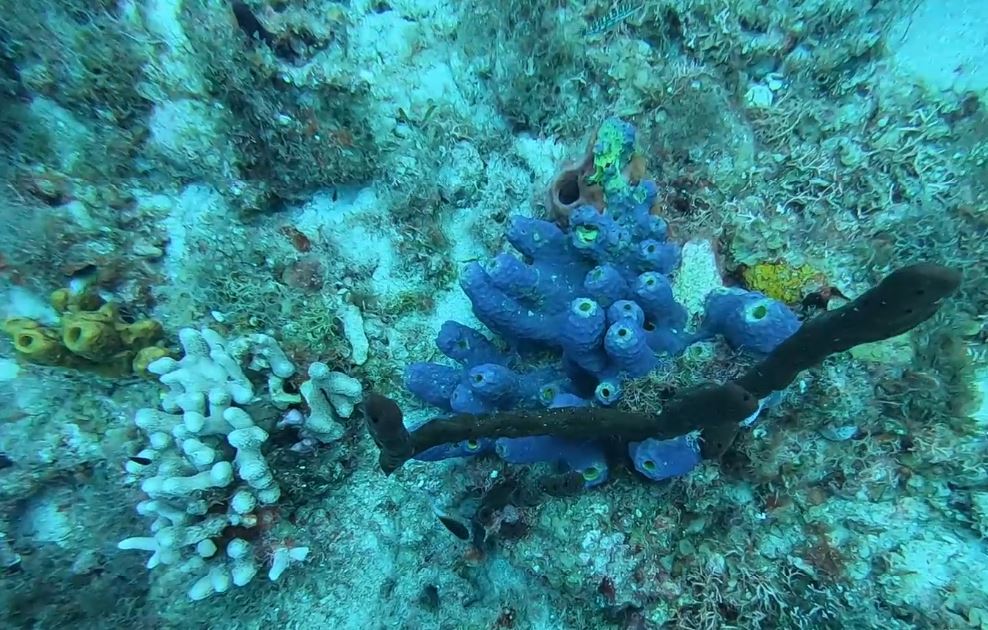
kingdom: Animalia
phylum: Porifera
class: Demospongiae
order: Verongiida
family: Aplysinidae
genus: Aiolochroia
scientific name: Aiolochroia crassa
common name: Branching tube sponge
